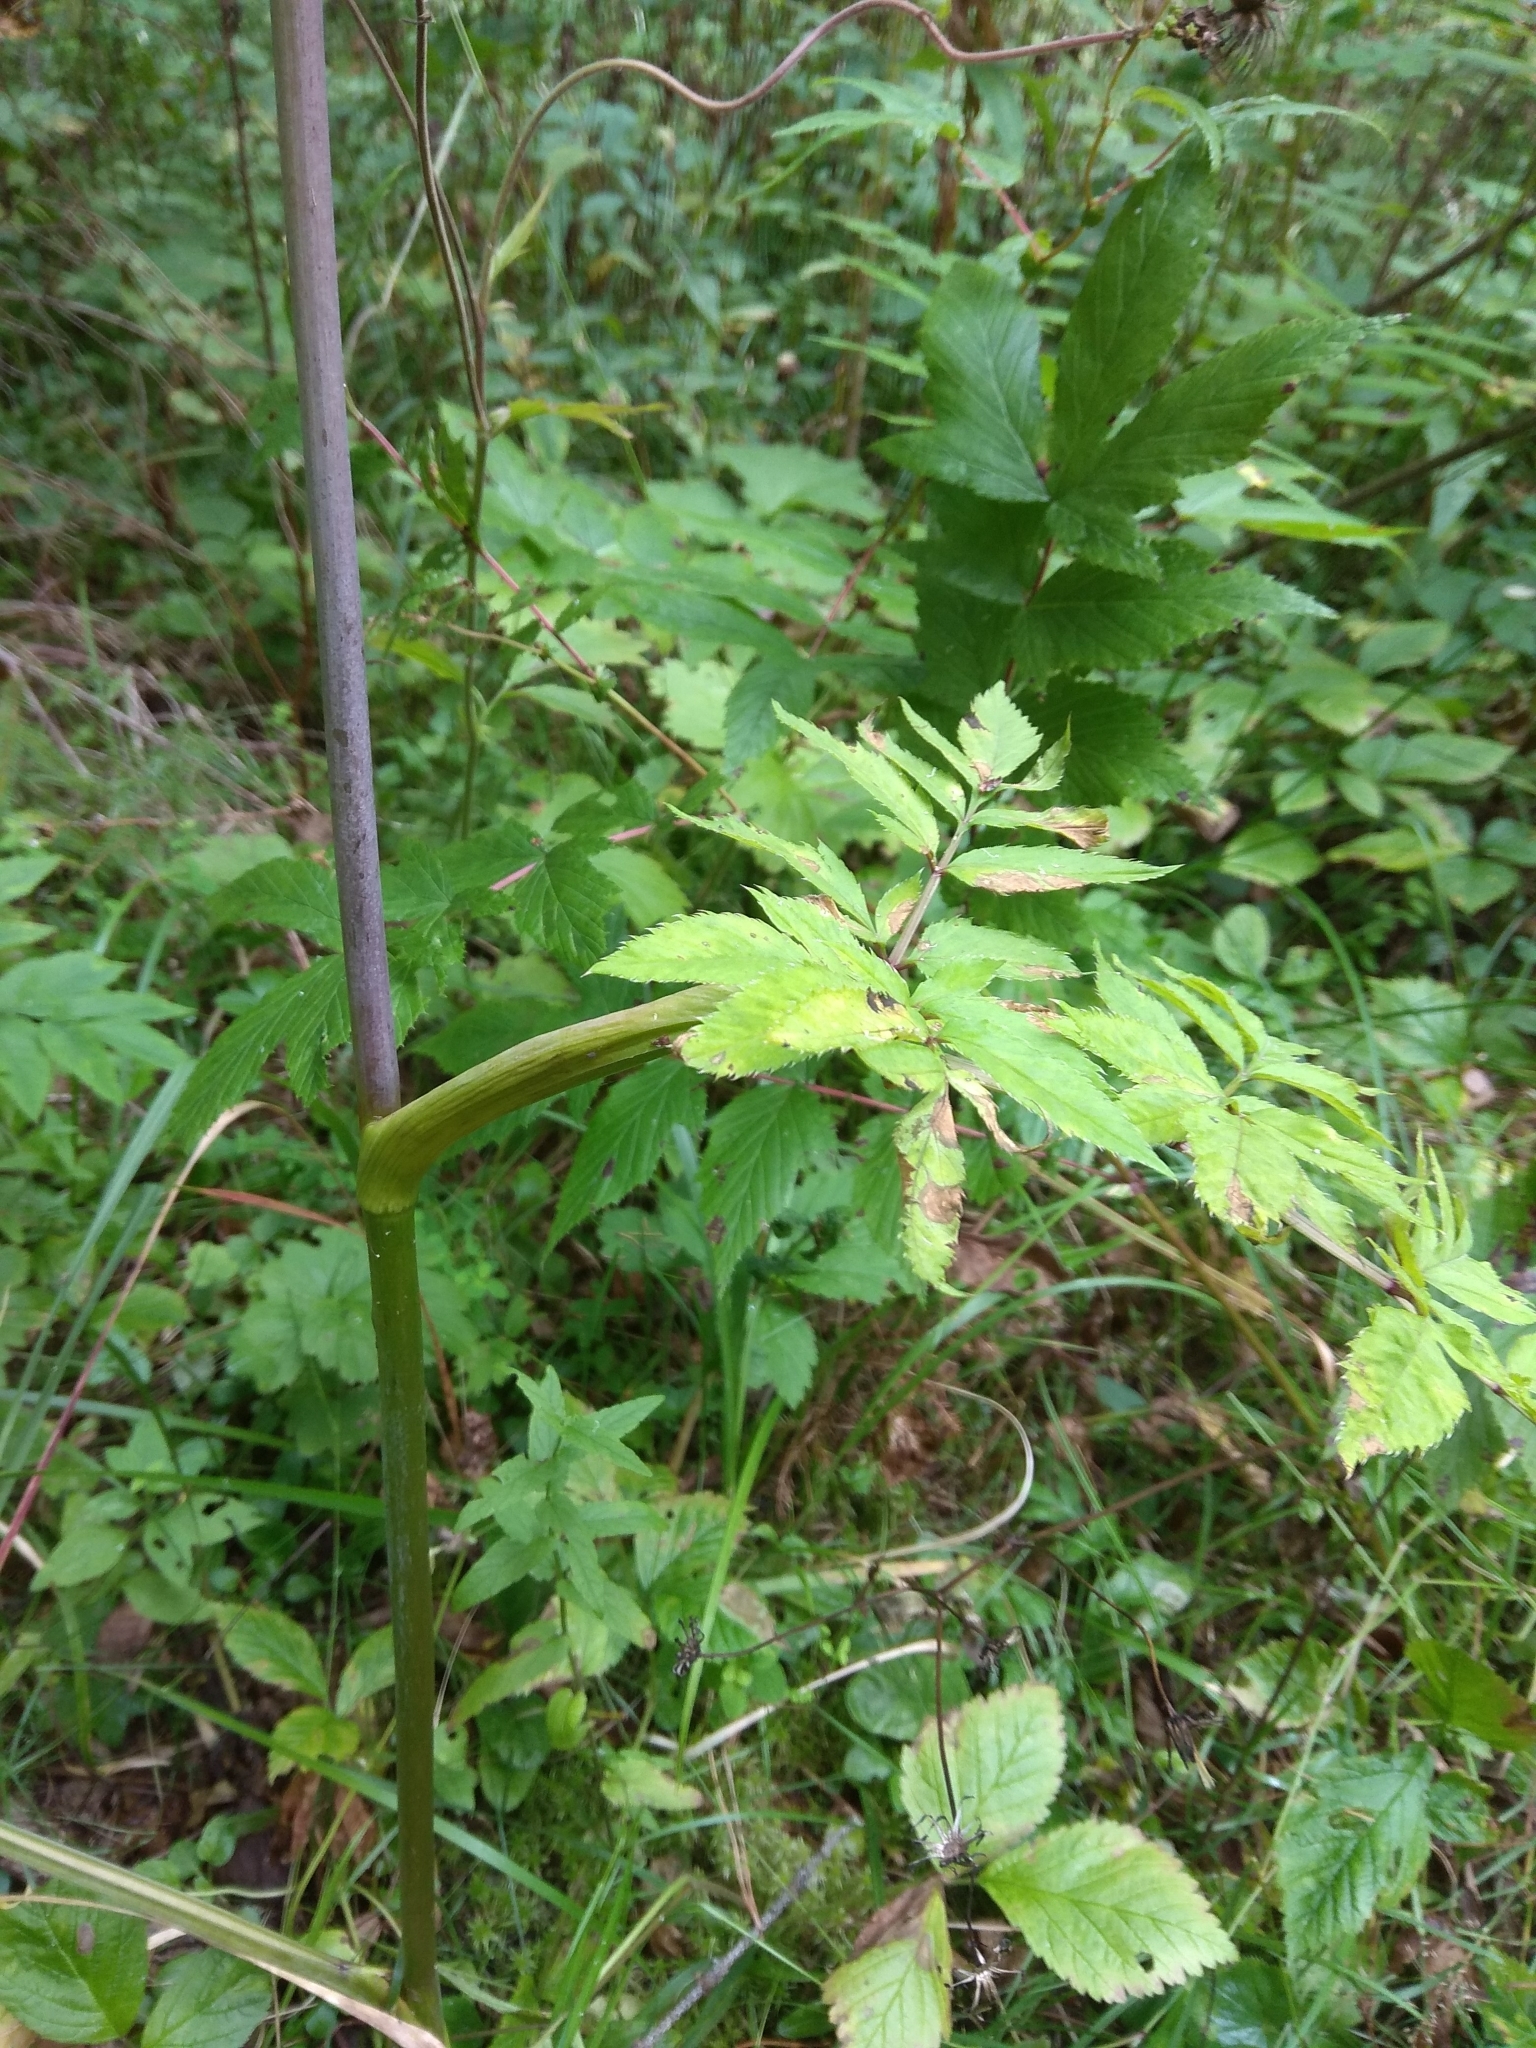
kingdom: Plantae
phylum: Tracheophyta
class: Magnoliopsida
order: Apiales
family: Apiaceae
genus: Angelica
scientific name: Angelica sylvestris
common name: Wild angelica
